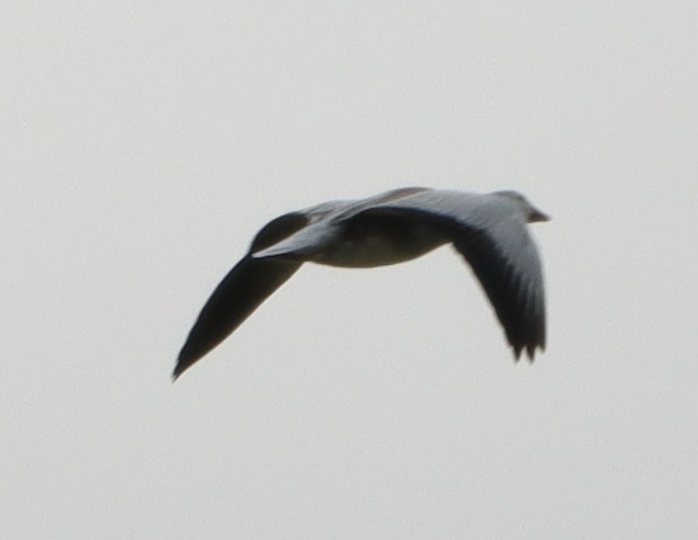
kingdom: Animalia
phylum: Chordata
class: Aves
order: Anseriformes
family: Anatidae
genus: Anser
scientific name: Anser caerulescens
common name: Snow goose
